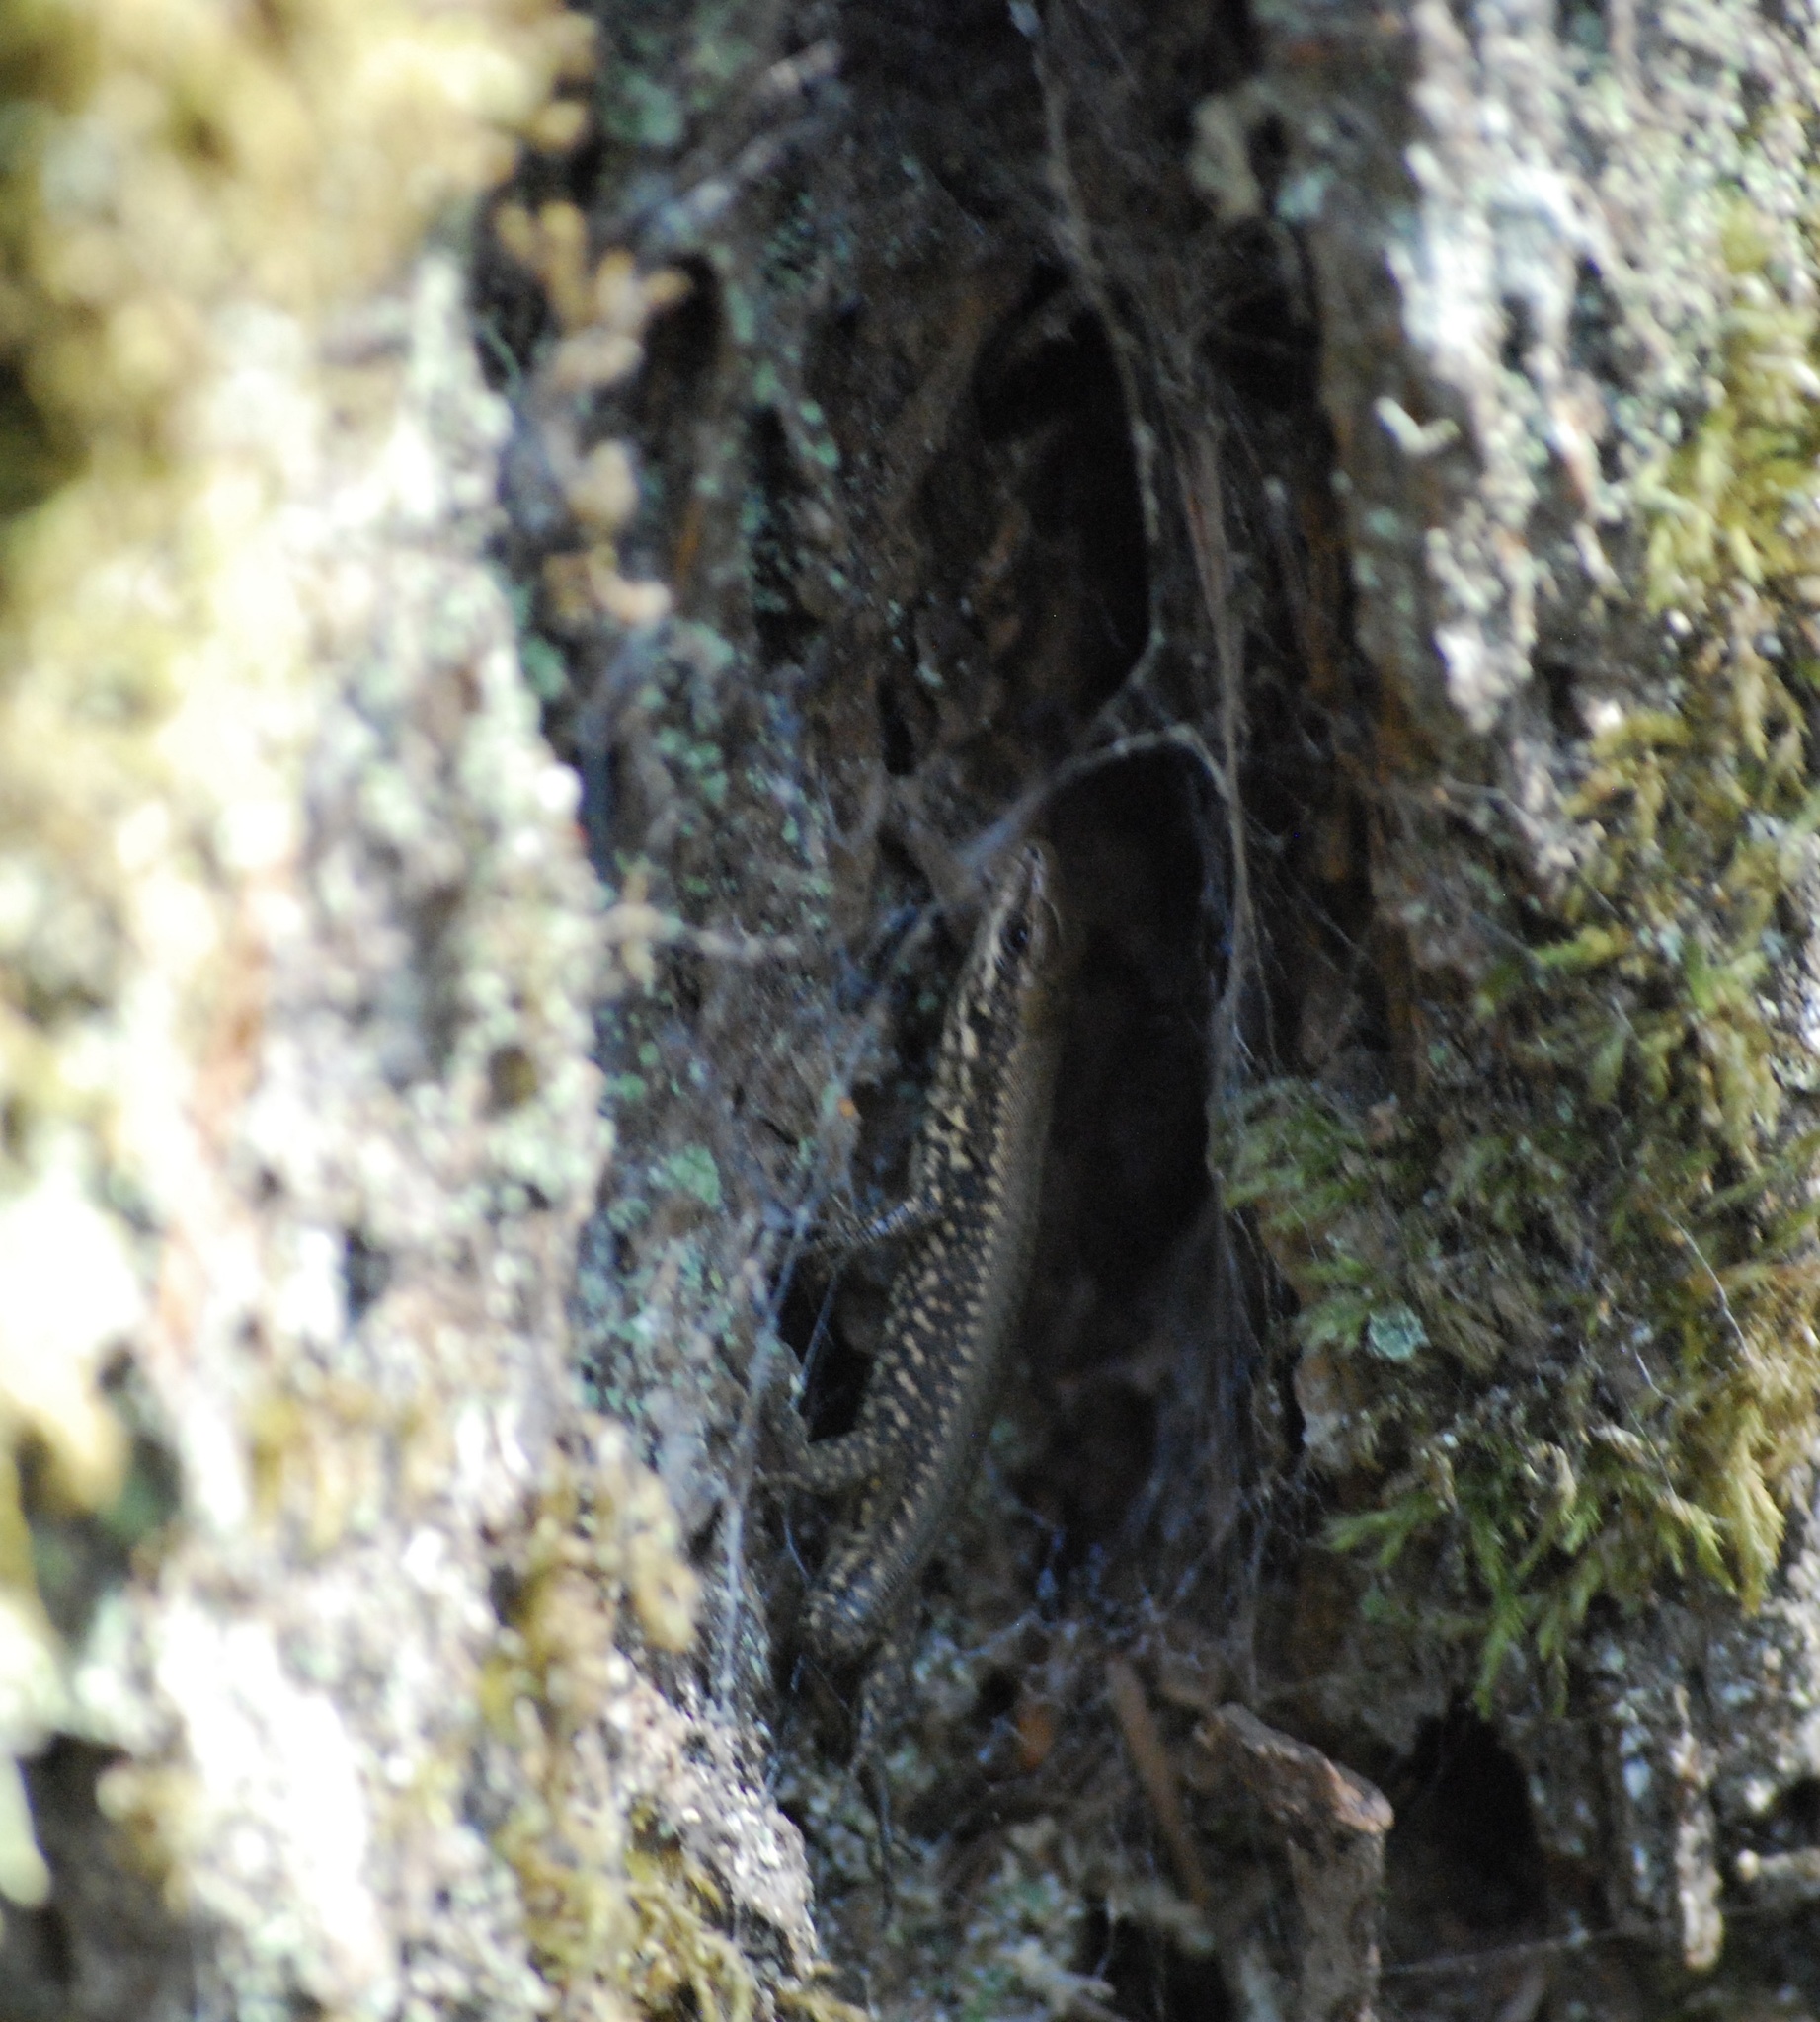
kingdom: Animalia
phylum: Chordata
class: Squamata
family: Lacertidae
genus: Podarcis
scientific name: Podarcis muralis
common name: Common wall lizard
